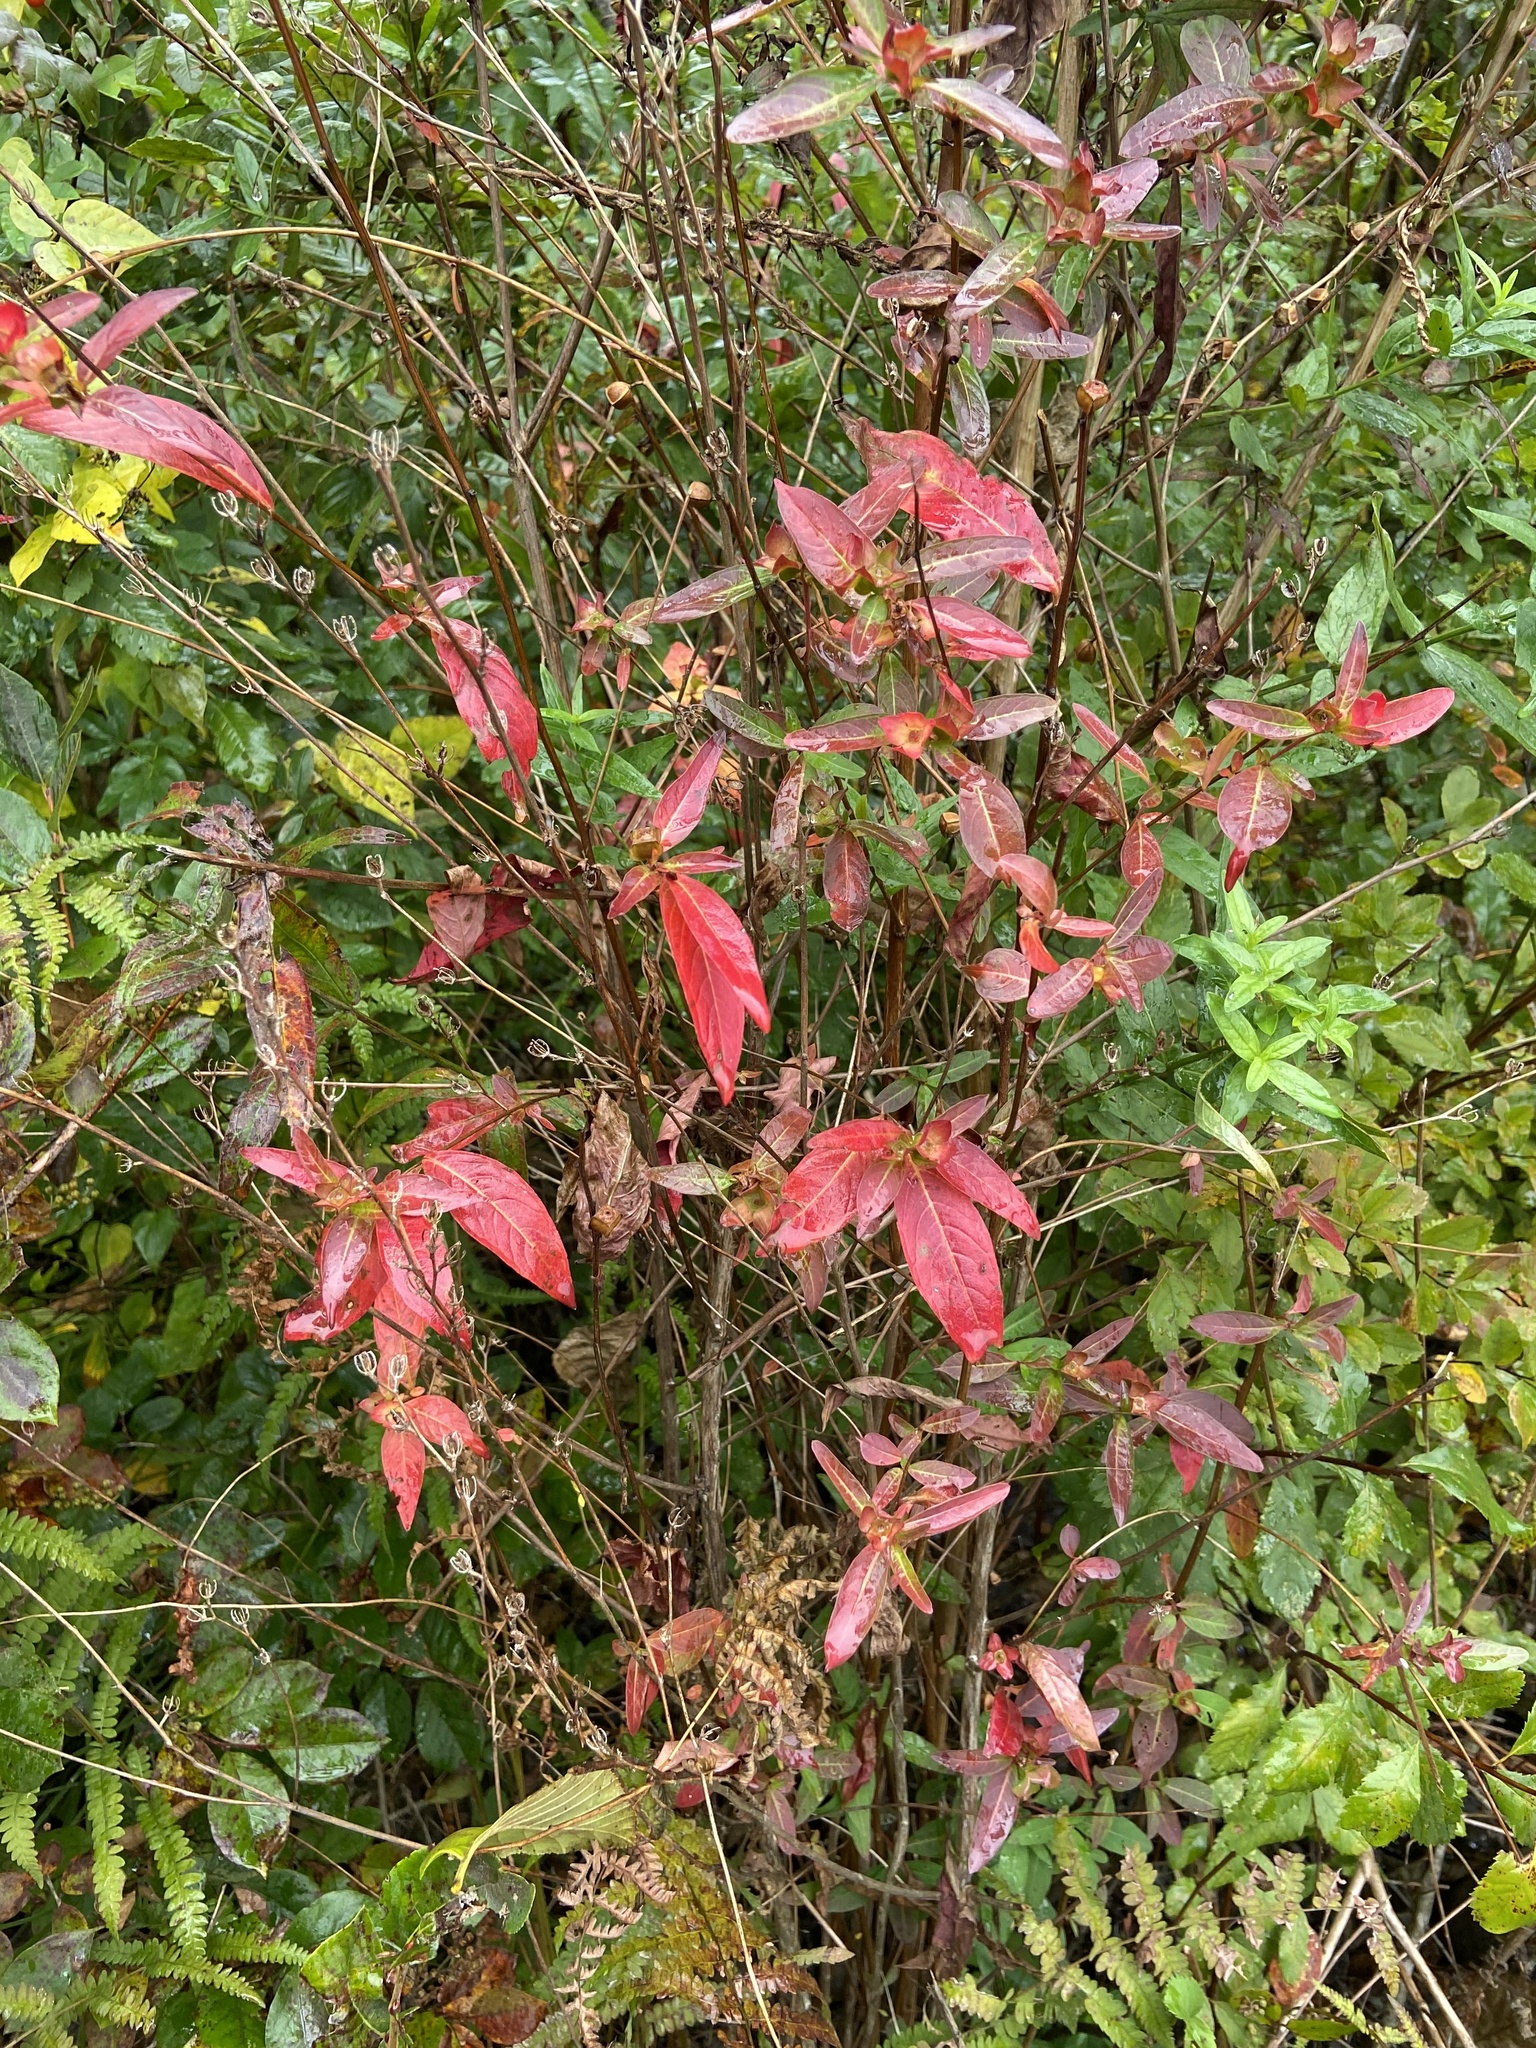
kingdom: Plantae
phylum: Tracheophyta
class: Magnoliopsida
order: Myrtales
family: Onagraceae
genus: Ludwigia
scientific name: Ludwigia alternifolia
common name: Rattlebox
